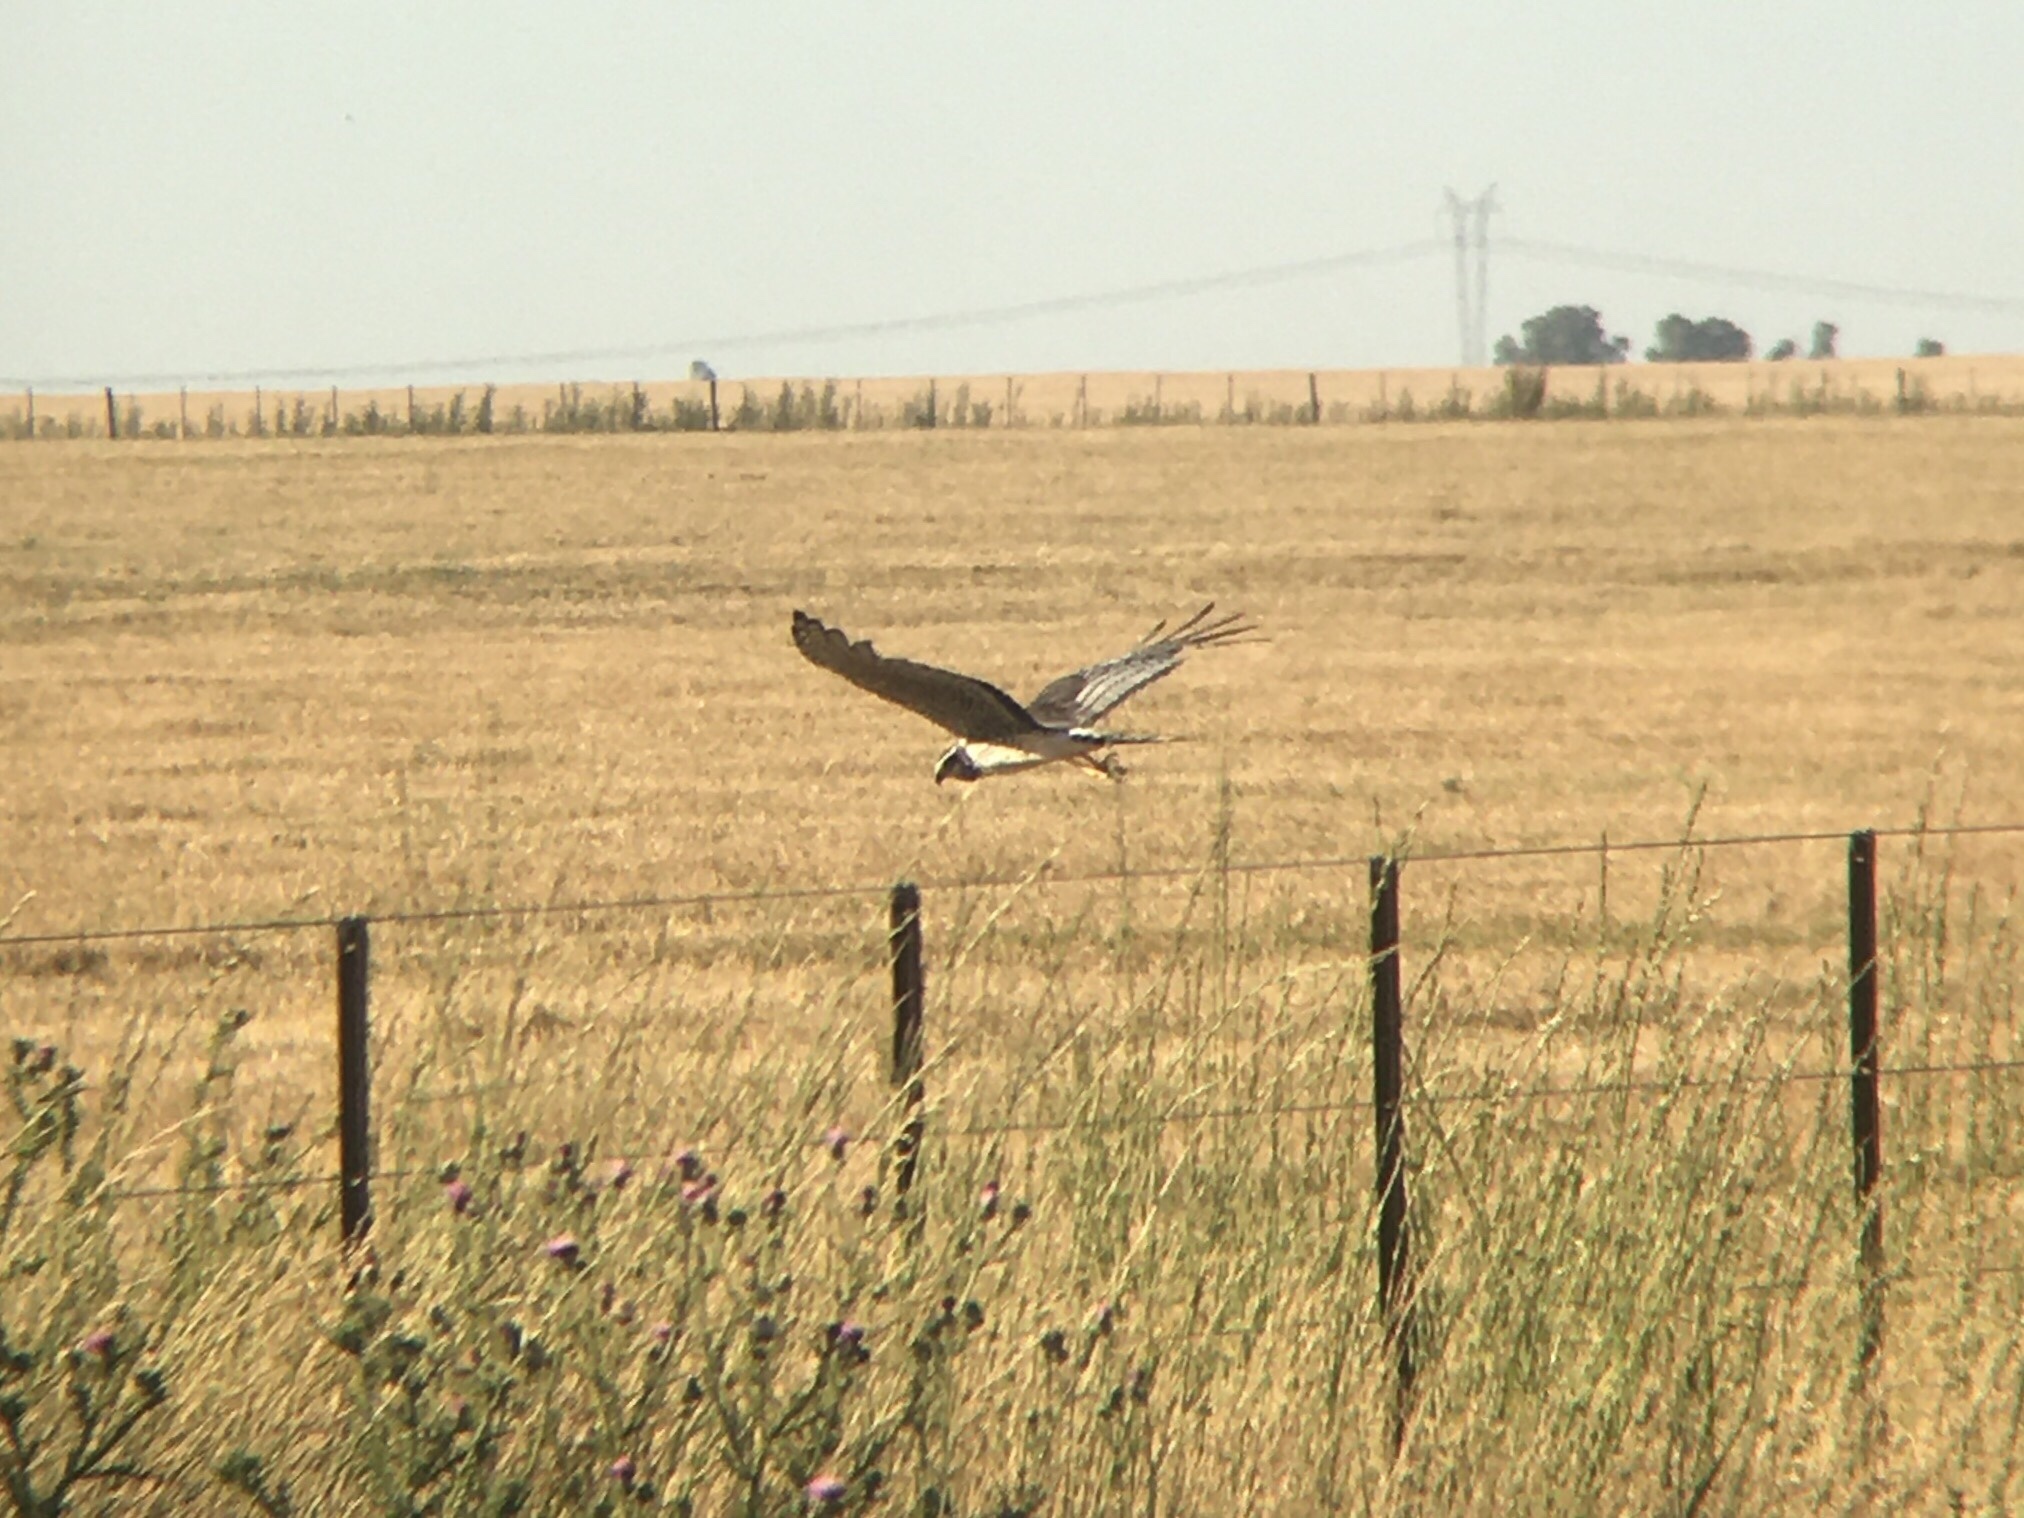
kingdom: Animalia
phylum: Chordata
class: Aves
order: Accipitriformes
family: Accipitridae
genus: Circus
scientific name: Circus buffoni
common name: Long-winged harrier
